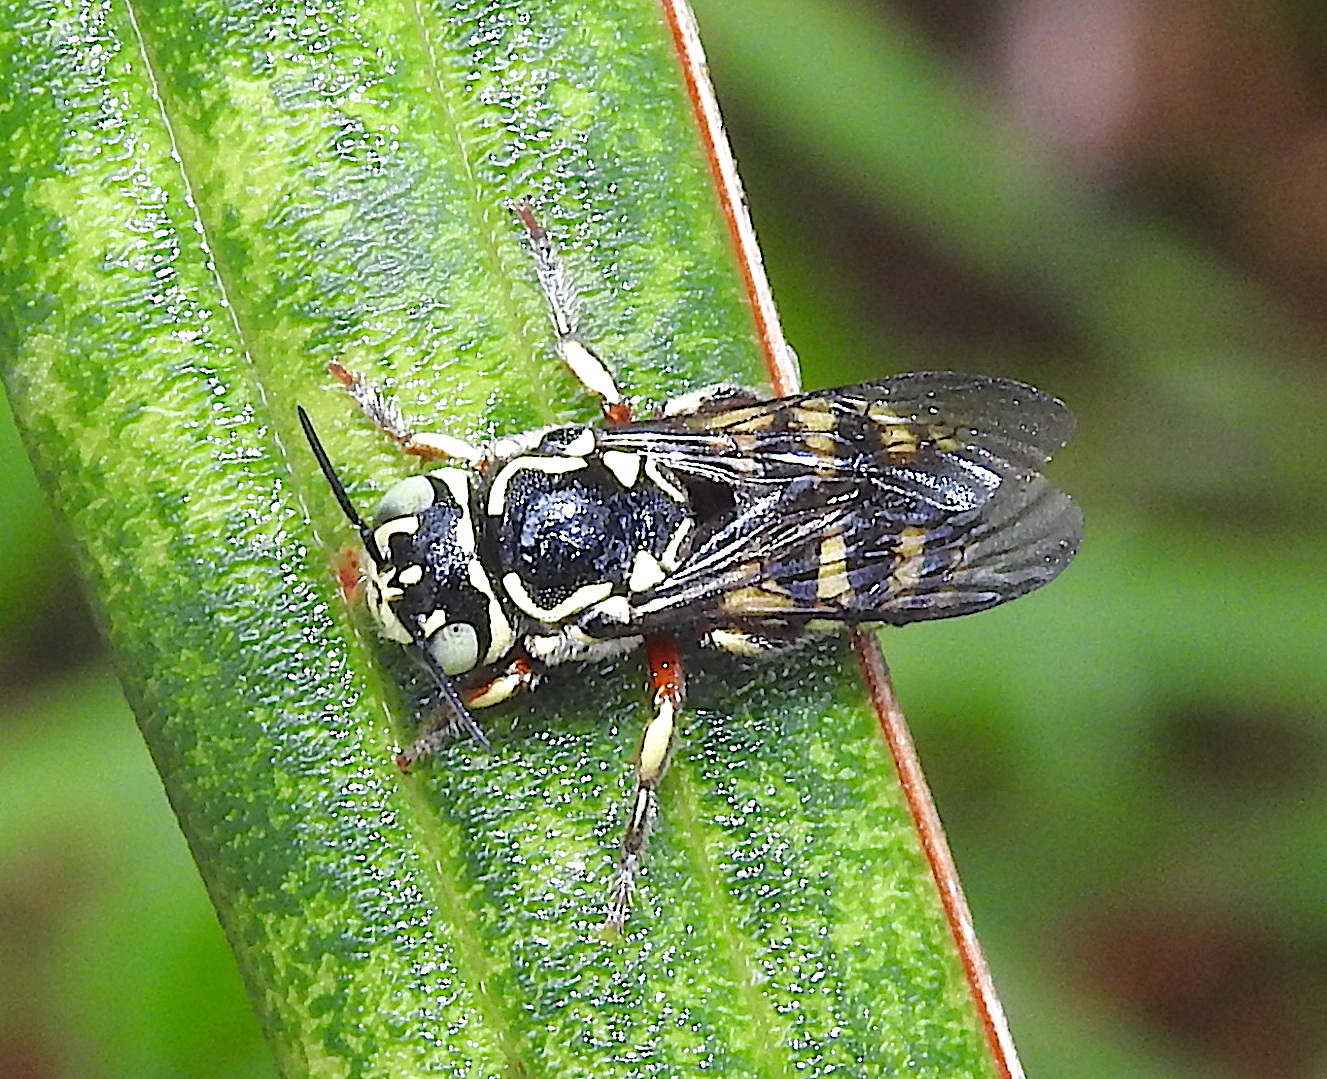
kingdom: Animalia
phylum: Arthropoda
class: Insecta
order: Hymenoptera
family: Megachilidae
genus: Eoanthidium
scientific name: Eoanthidium salemense
